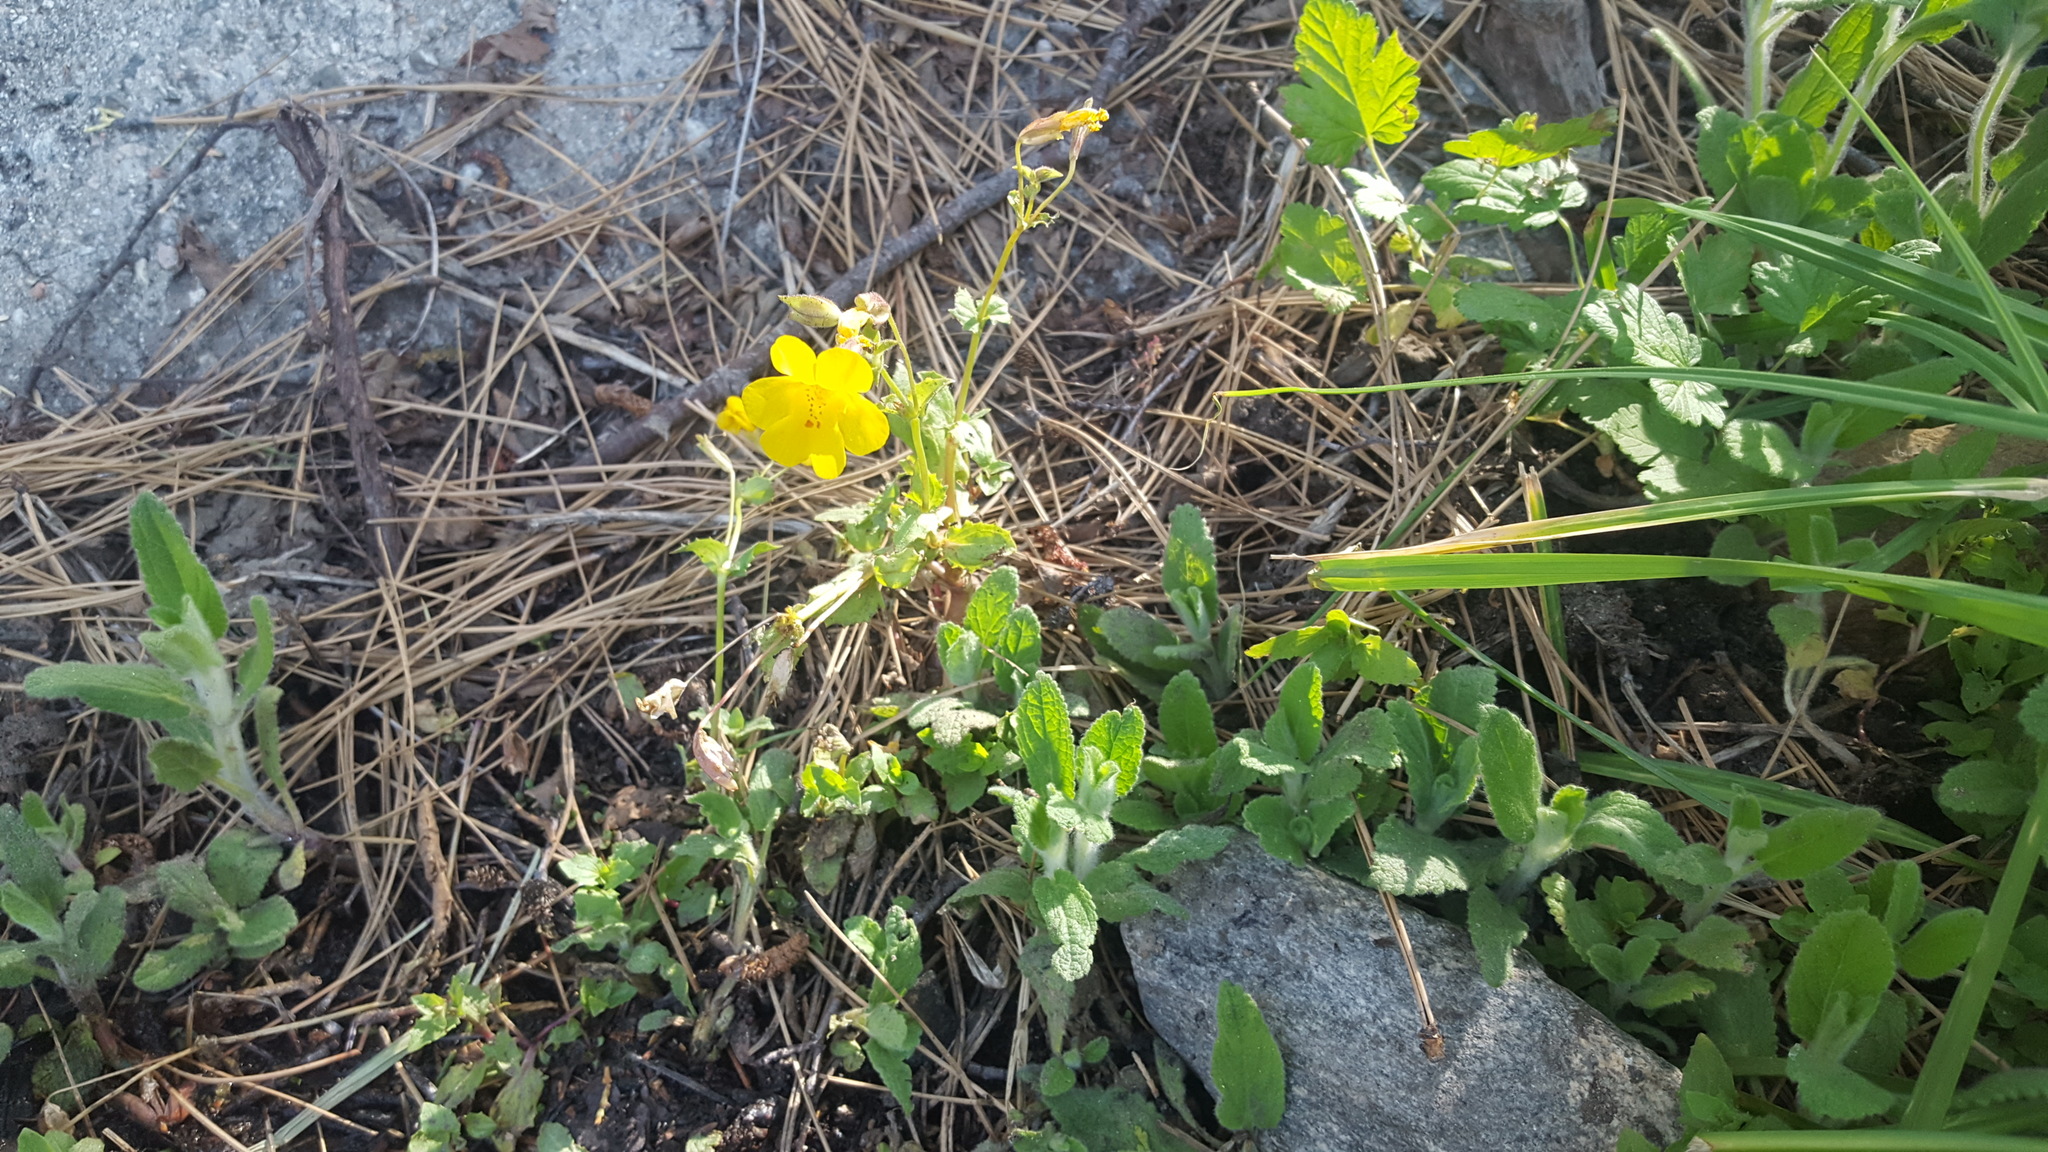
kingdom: Plantae
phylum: Tracheophyta
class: Magnoliopsida
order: Lamiales
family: Phrymaceae
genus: Erythranthe
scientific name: Erythranthe guttata
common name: Monkeyflower
